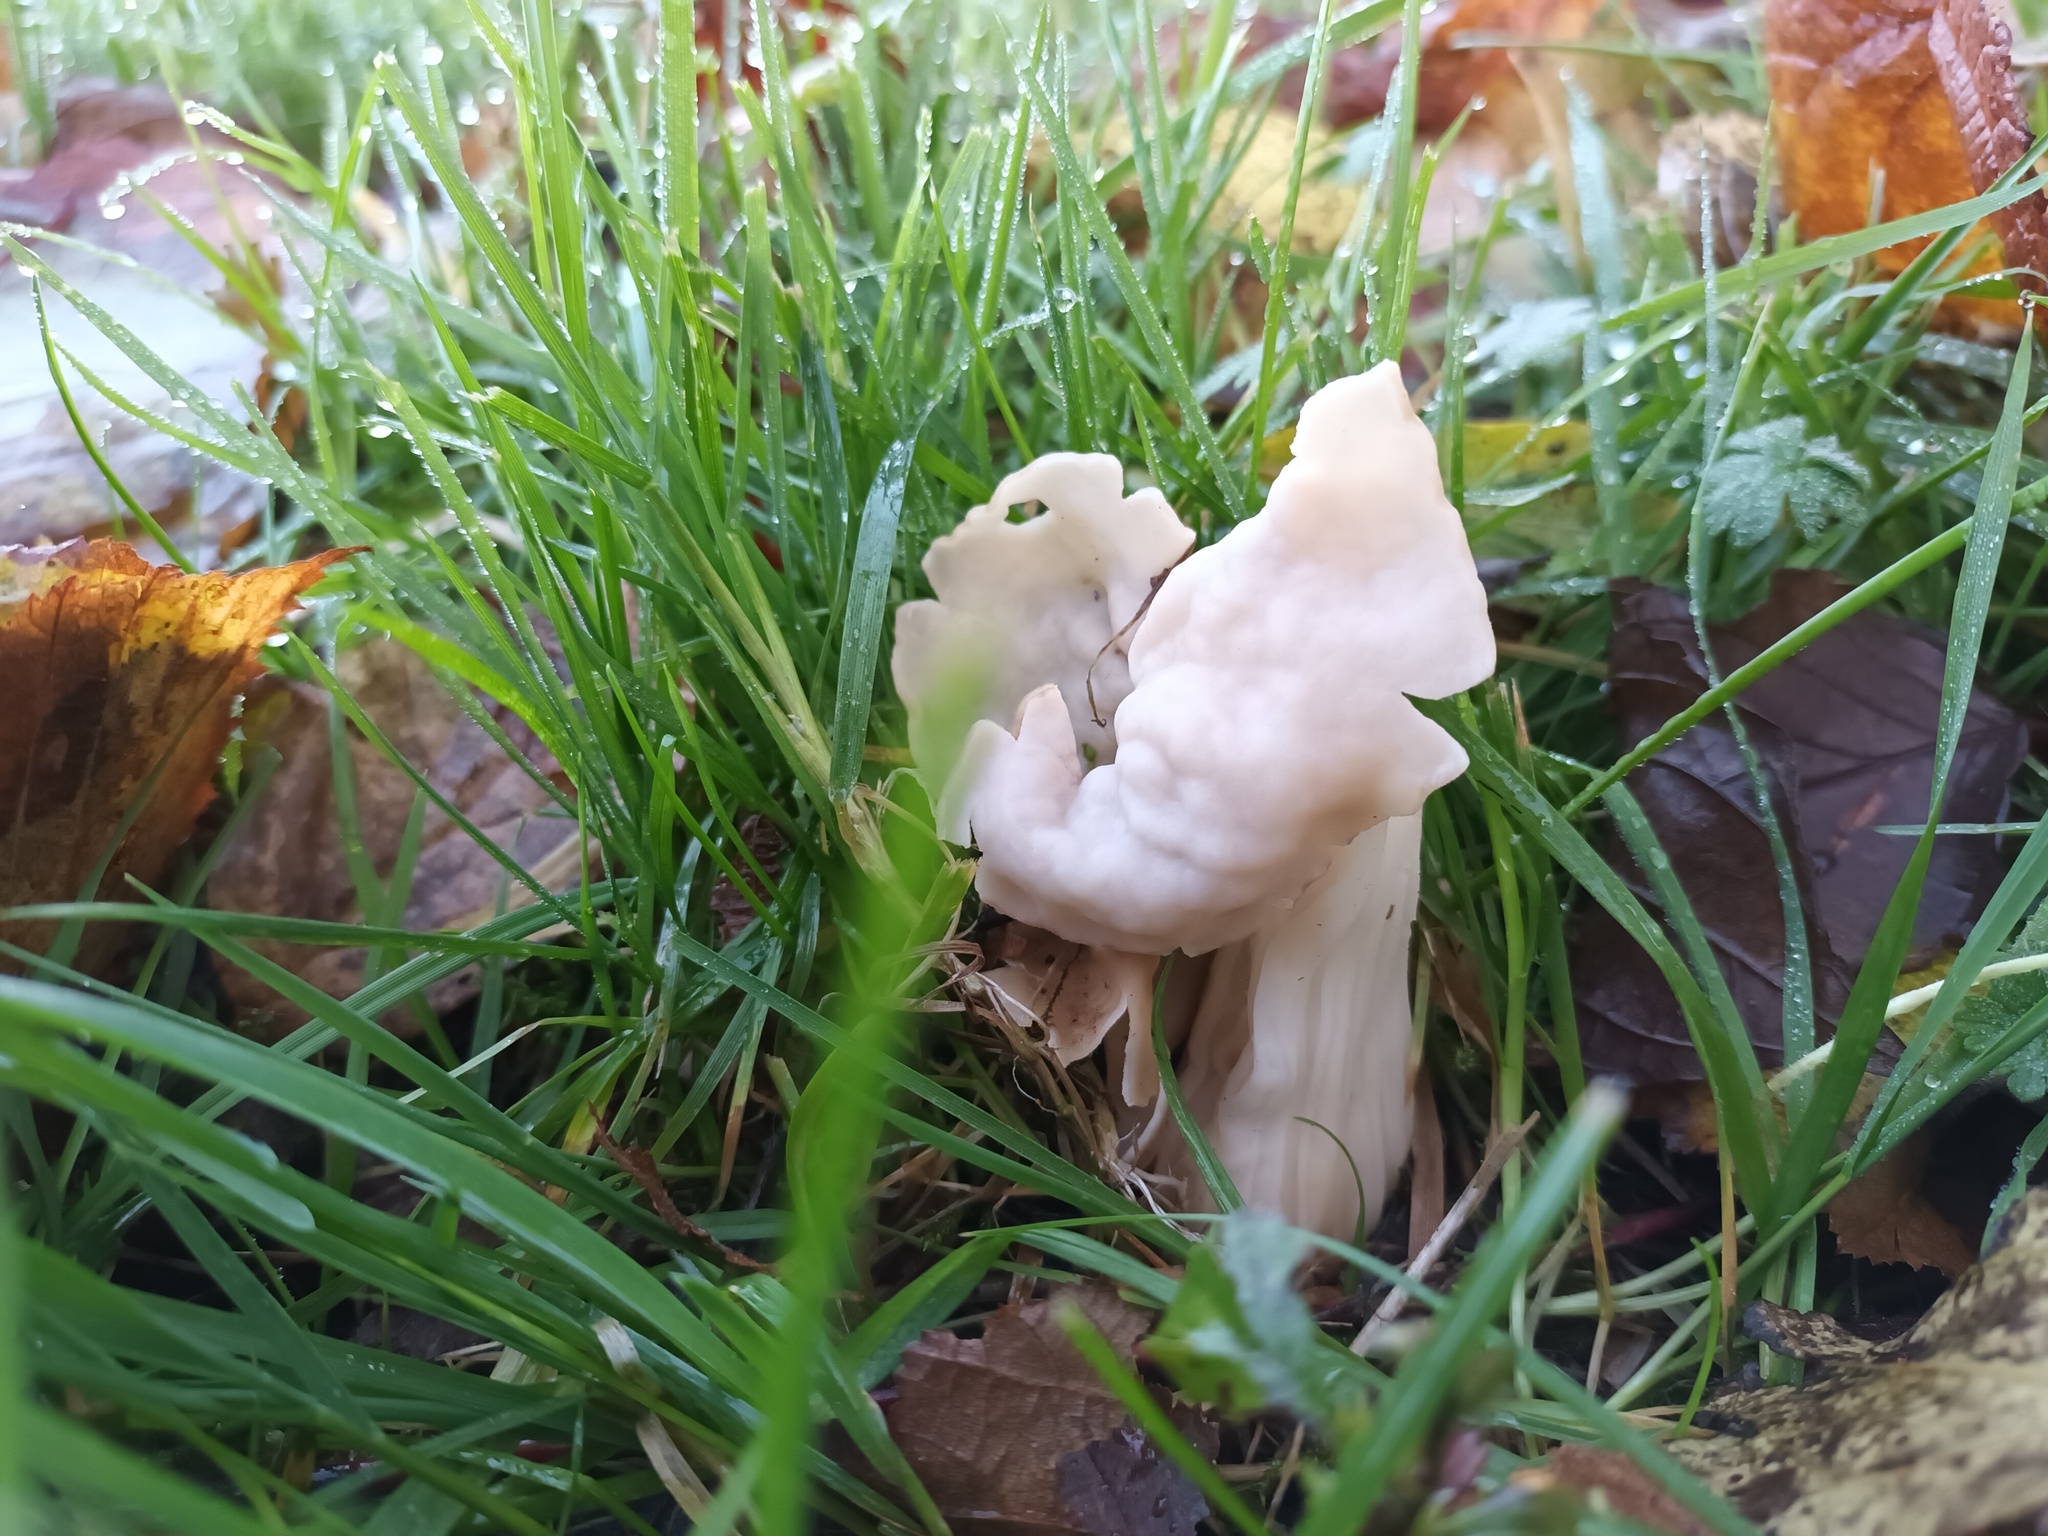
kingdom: Fungi
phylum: Ascomycota
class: Pezizomycetes
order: Pezizales
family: Helvellaceae
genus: Helvella
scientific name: Helvella crispa
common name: White saddle
